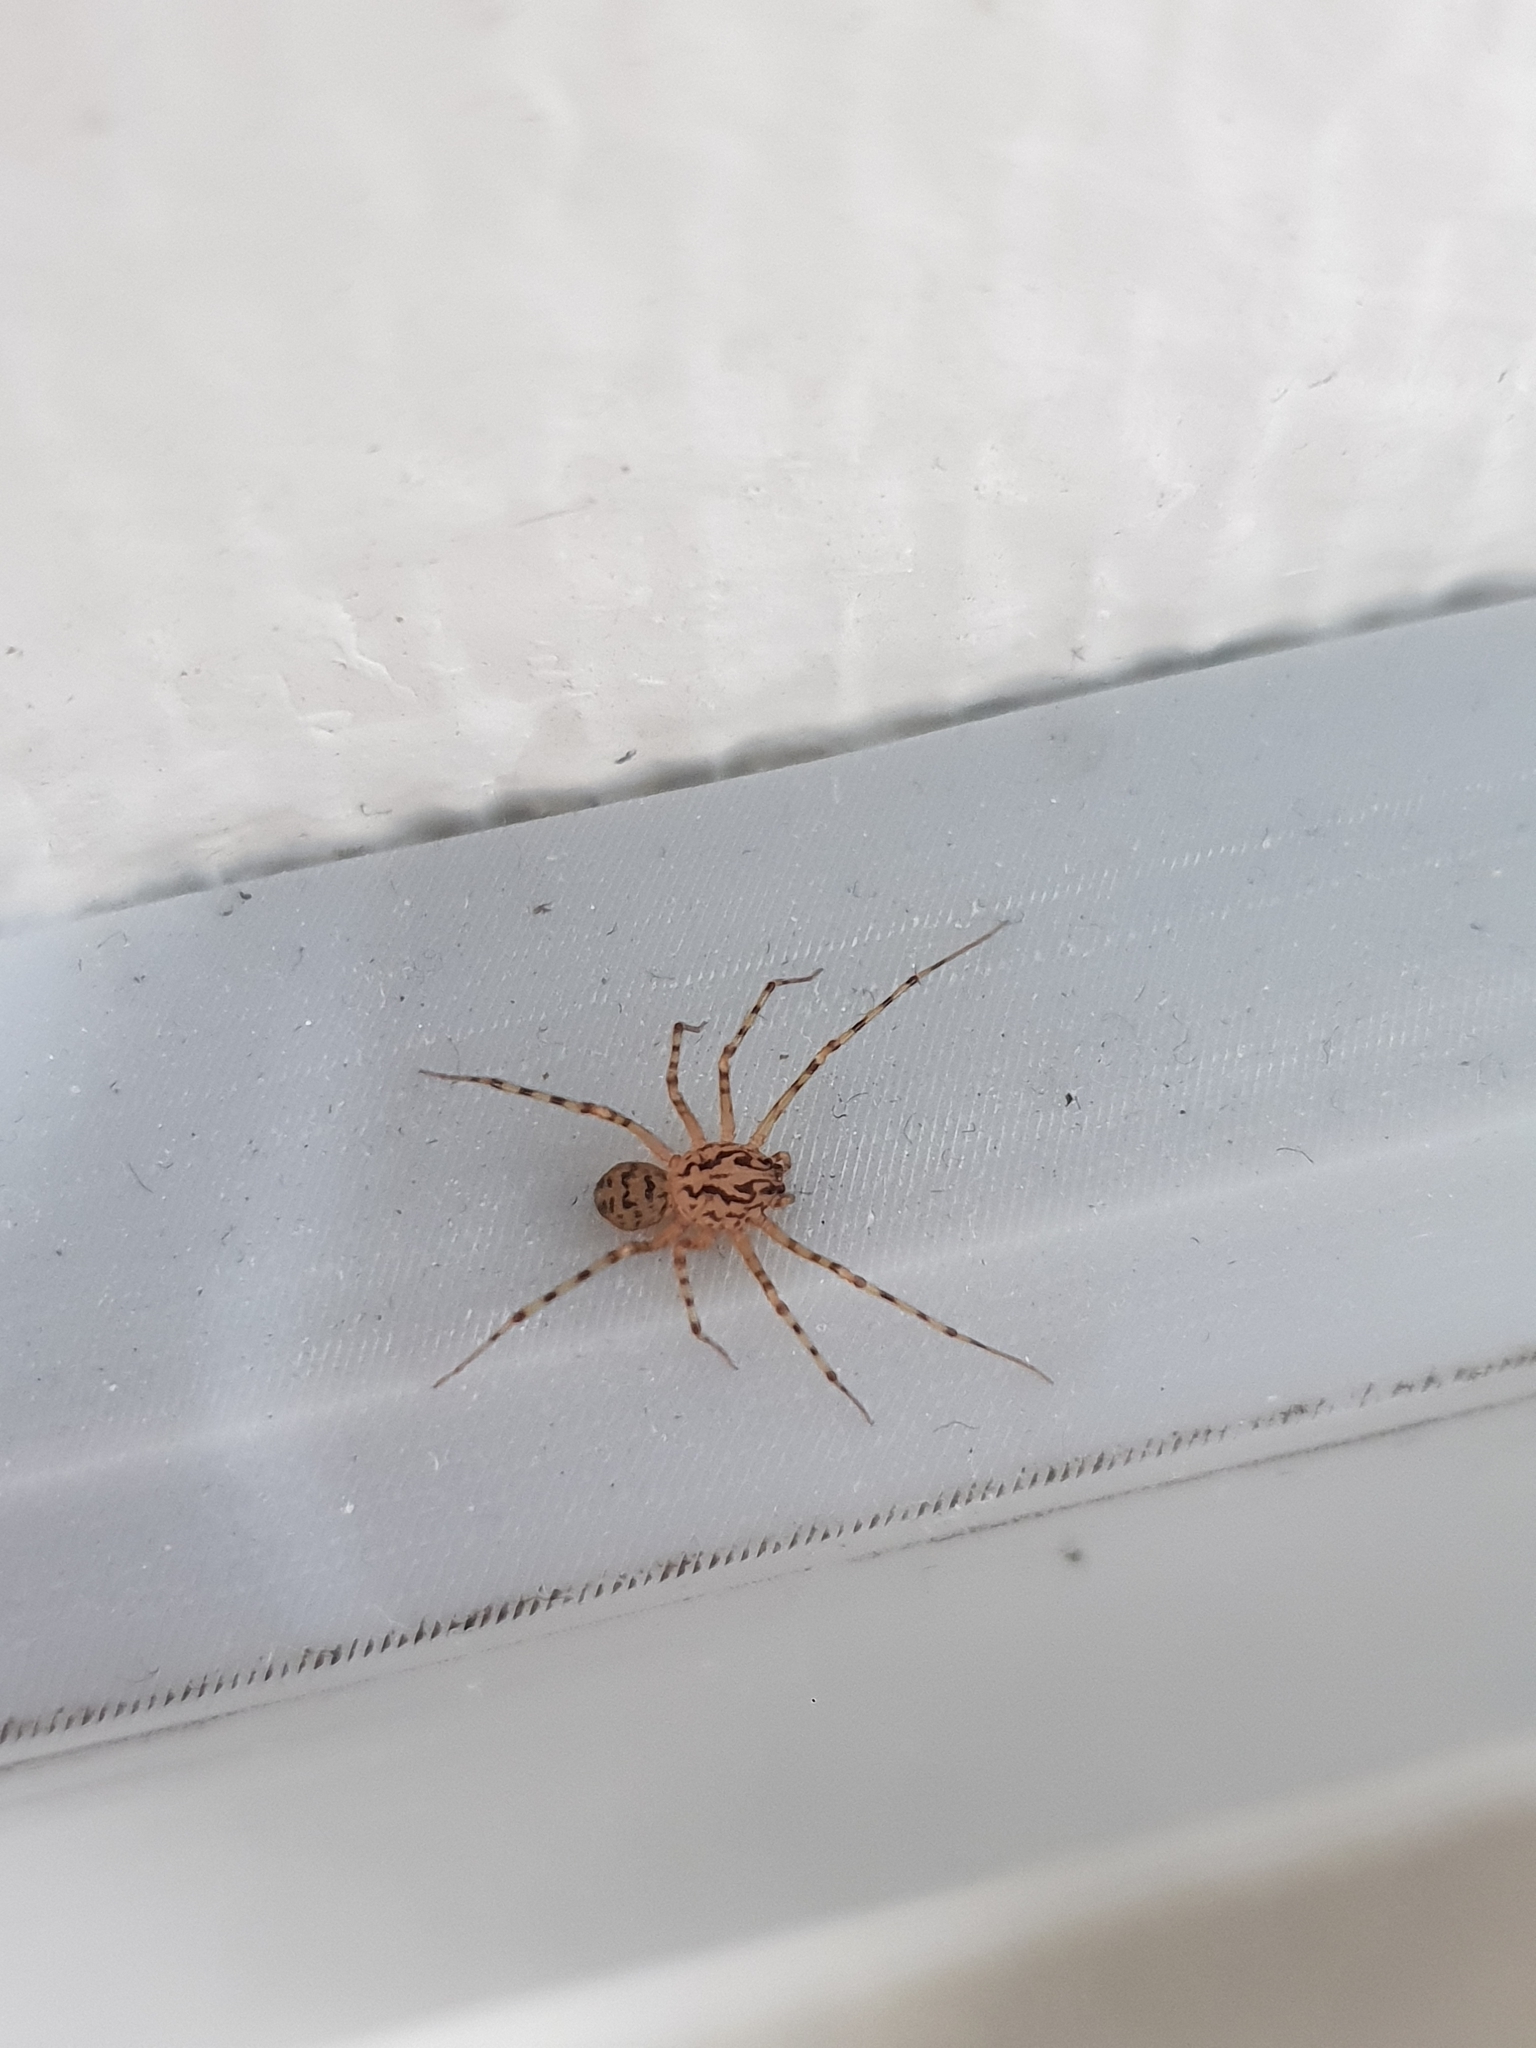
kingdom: Animalia
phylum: Arthropoda
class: Arachnida
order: Araneae
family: Scytodidae
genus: Scytodes
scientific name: Scytodes thoracica
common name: Spitting spider
